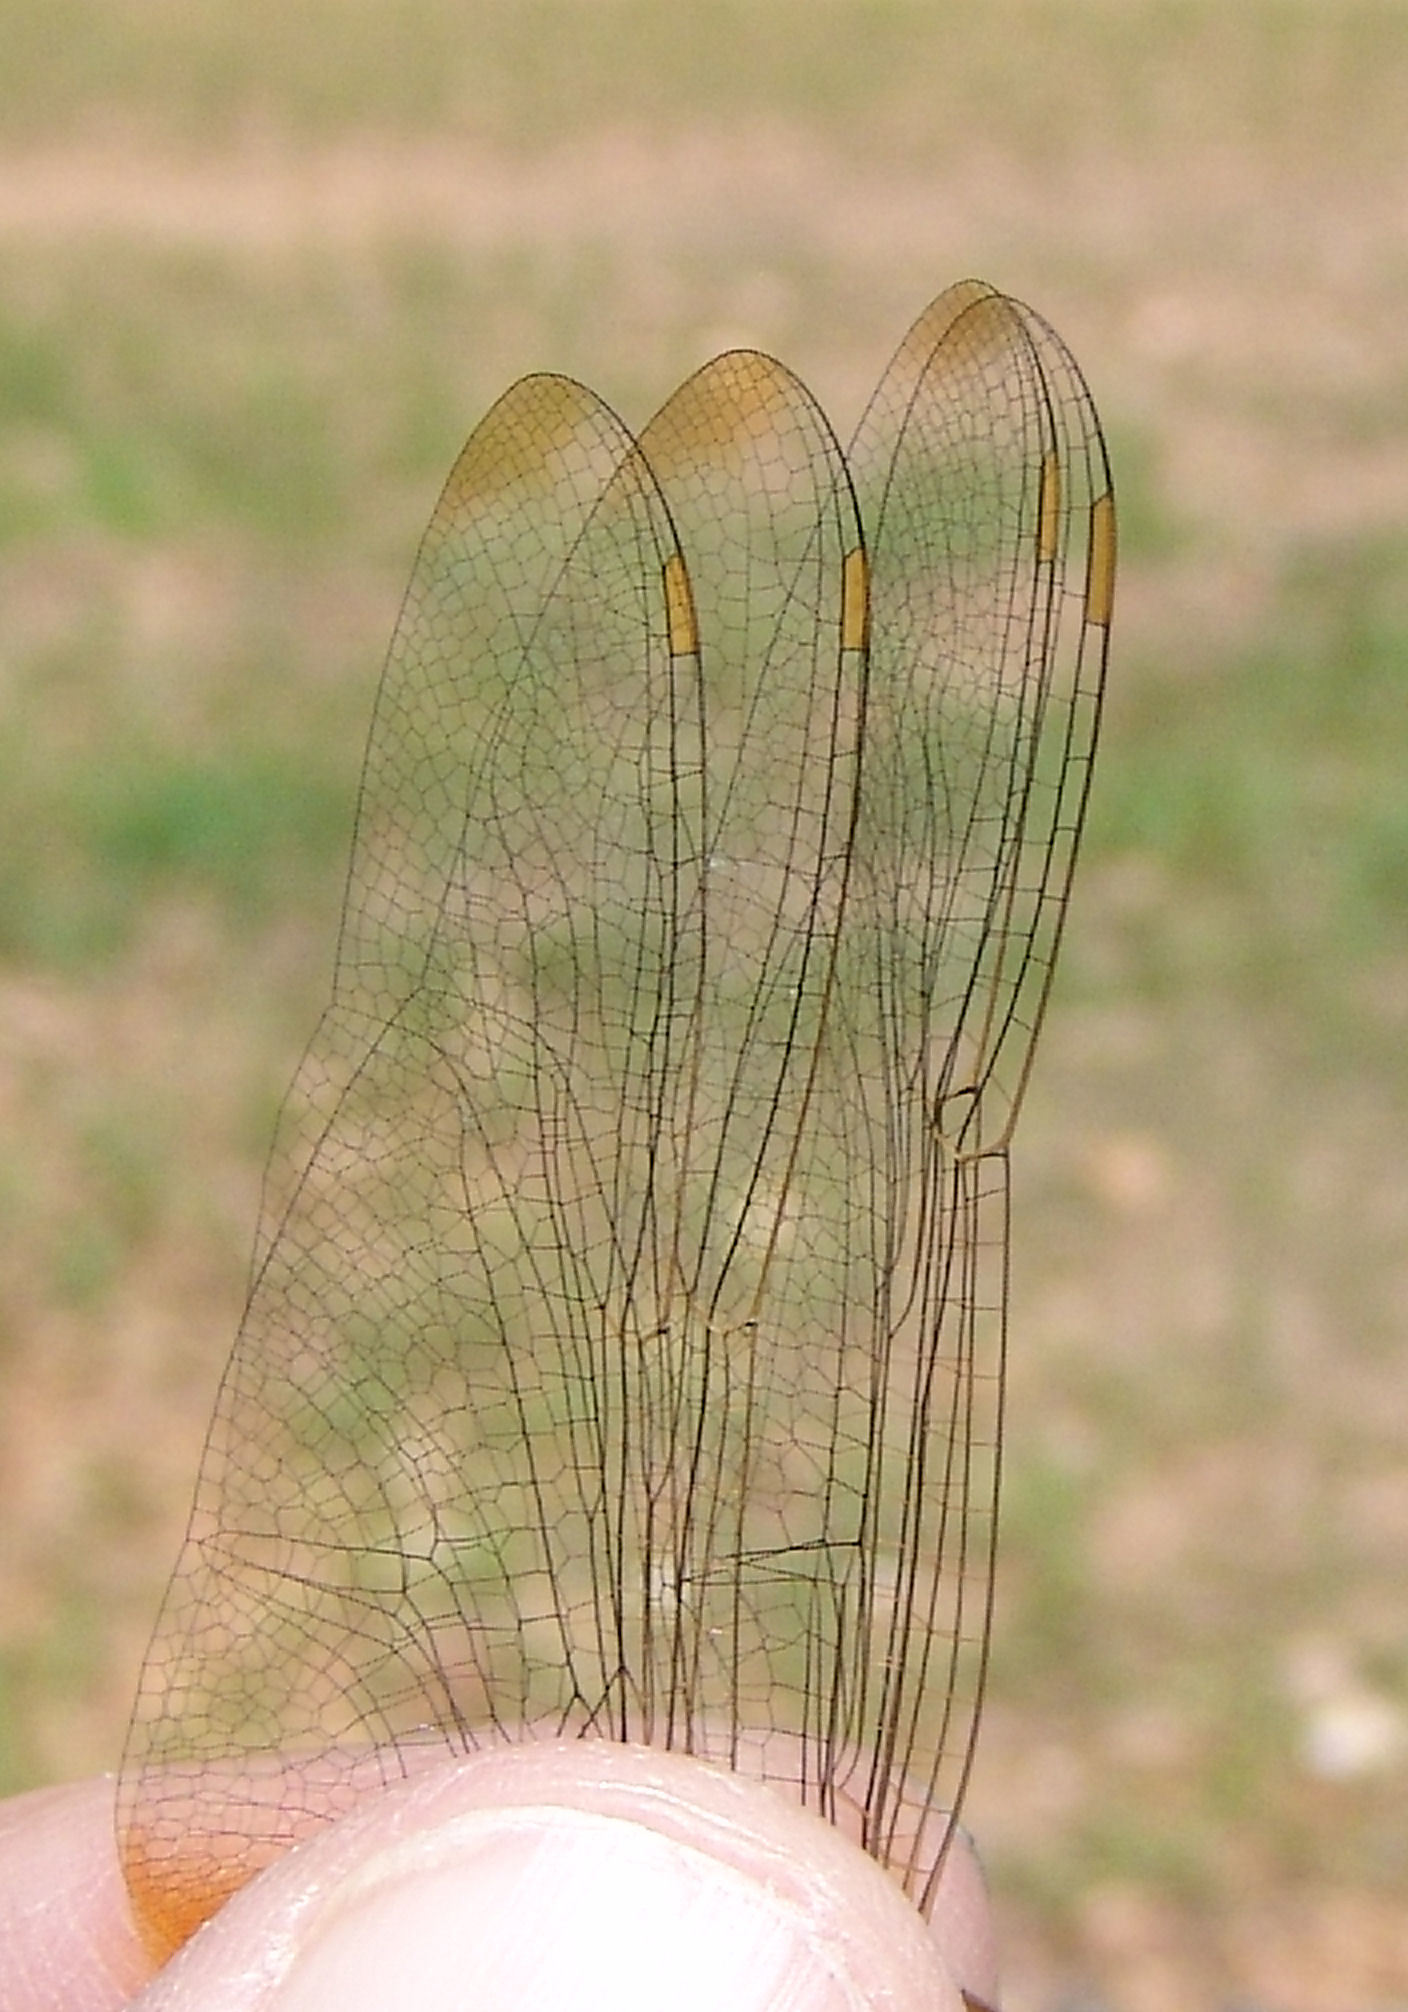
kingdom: Animalia
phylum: Arthropoda
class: Insecta
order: Odonata
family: Libellulidae
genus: Pantala
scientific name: Pantala flavescens
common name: Wandering glider
